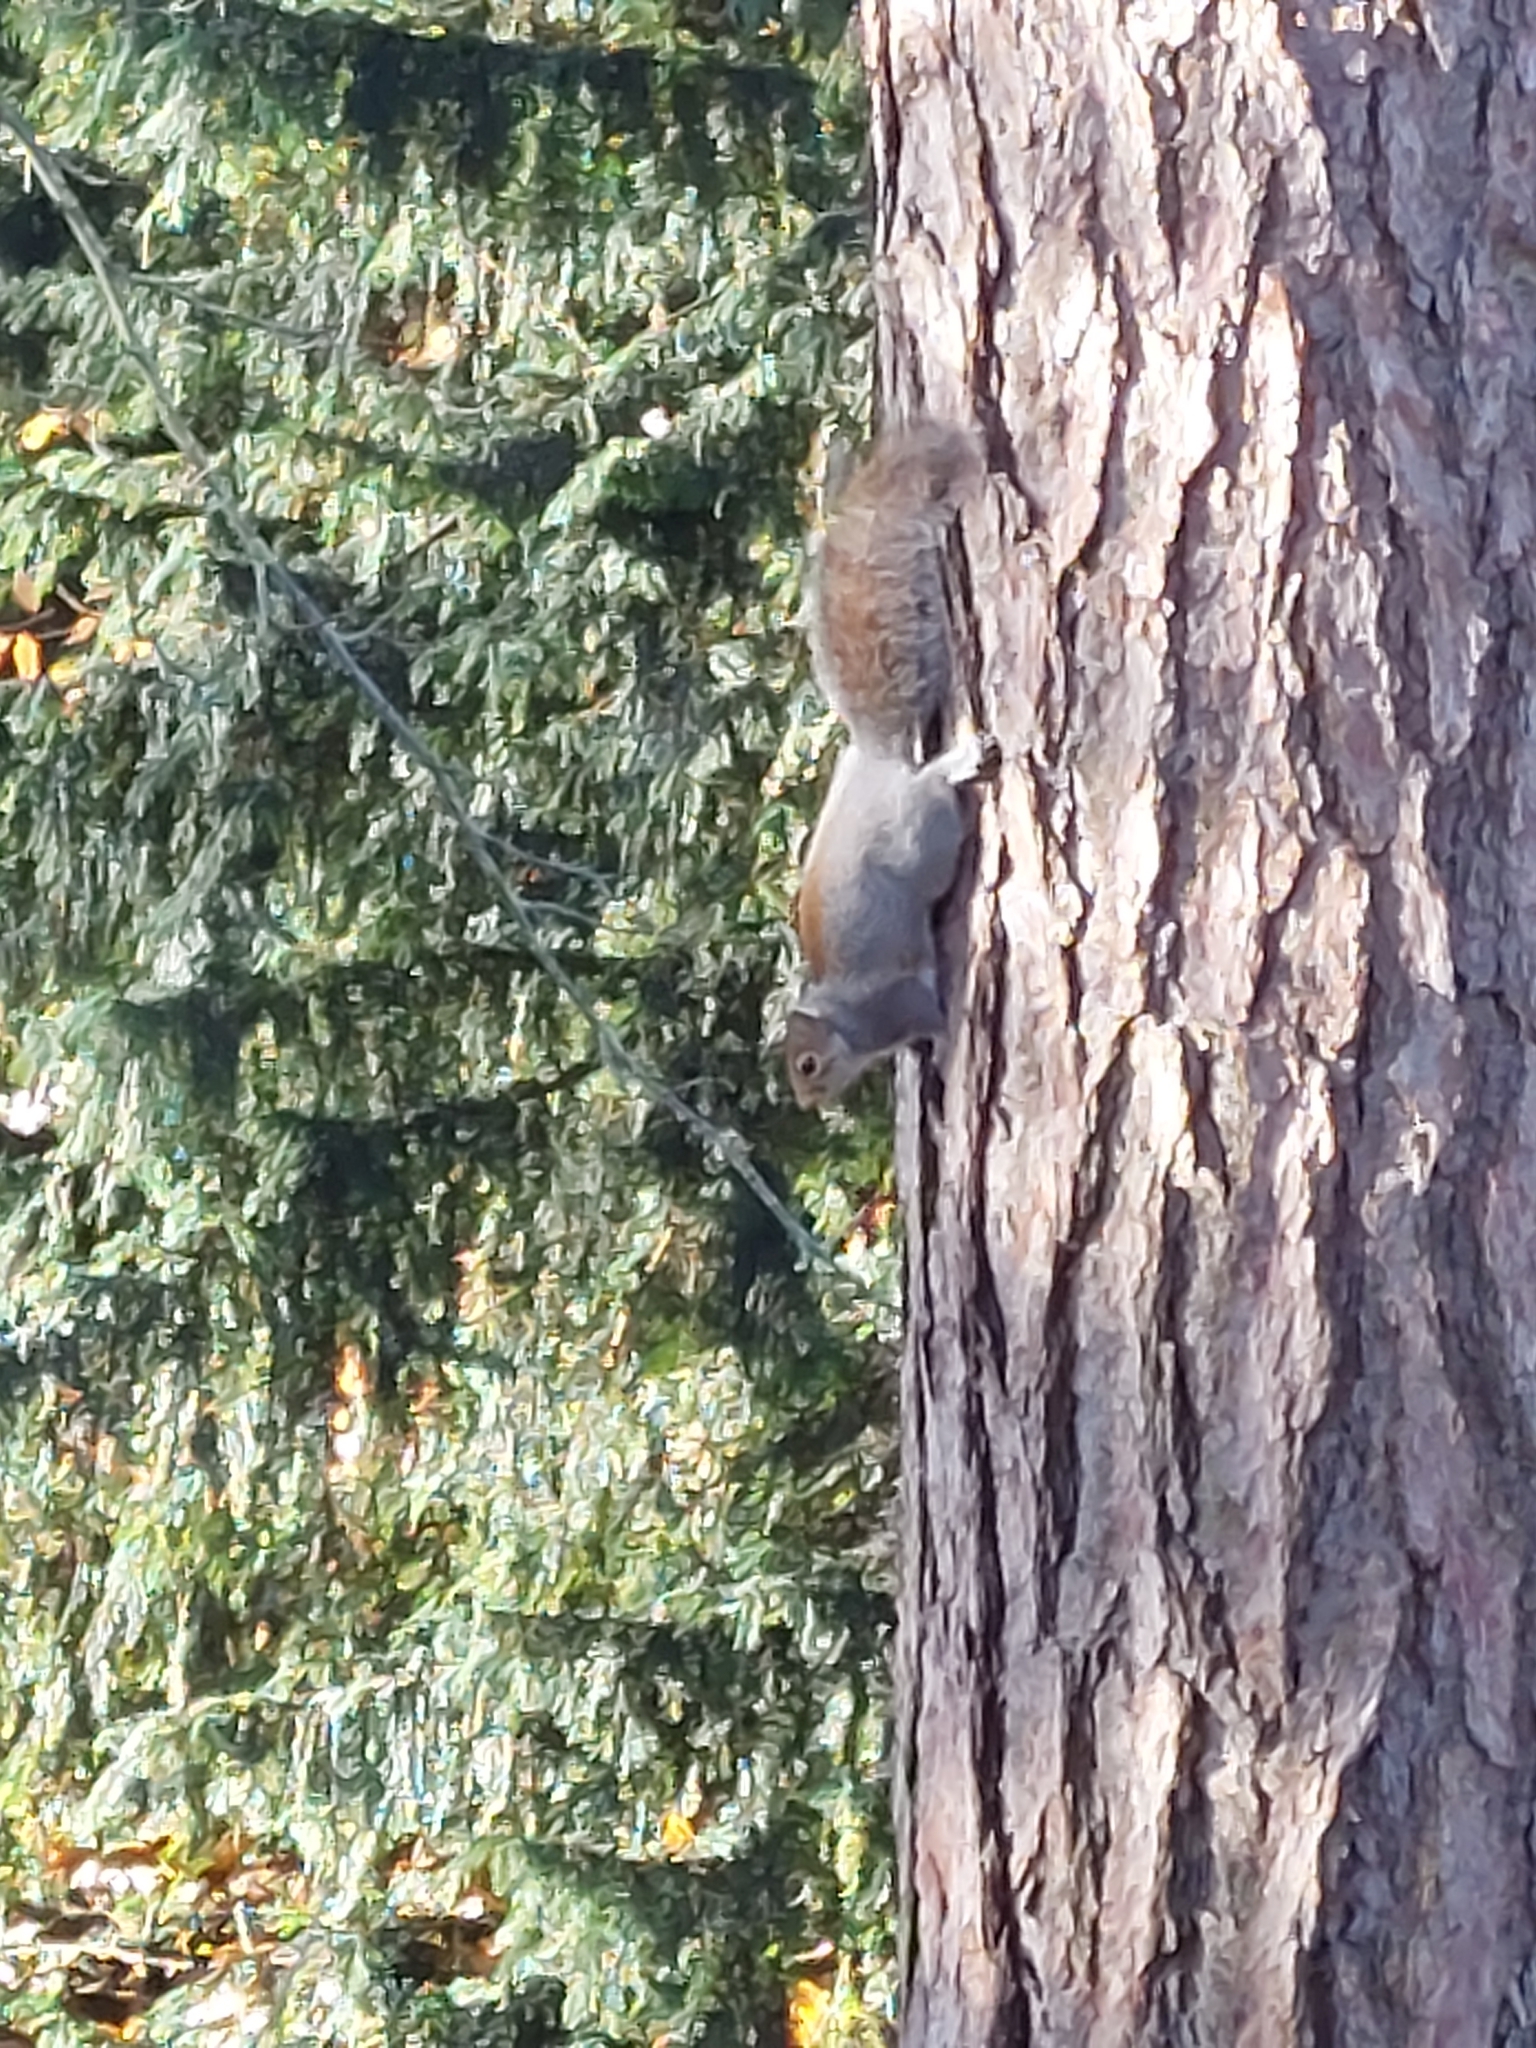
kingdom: Animalia
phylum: Chordata
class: Mammalia
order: Rodentia
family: Sciuridae
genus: Sciurus
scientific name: Sciurus carolinensis
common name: Eastern gray squirrel
